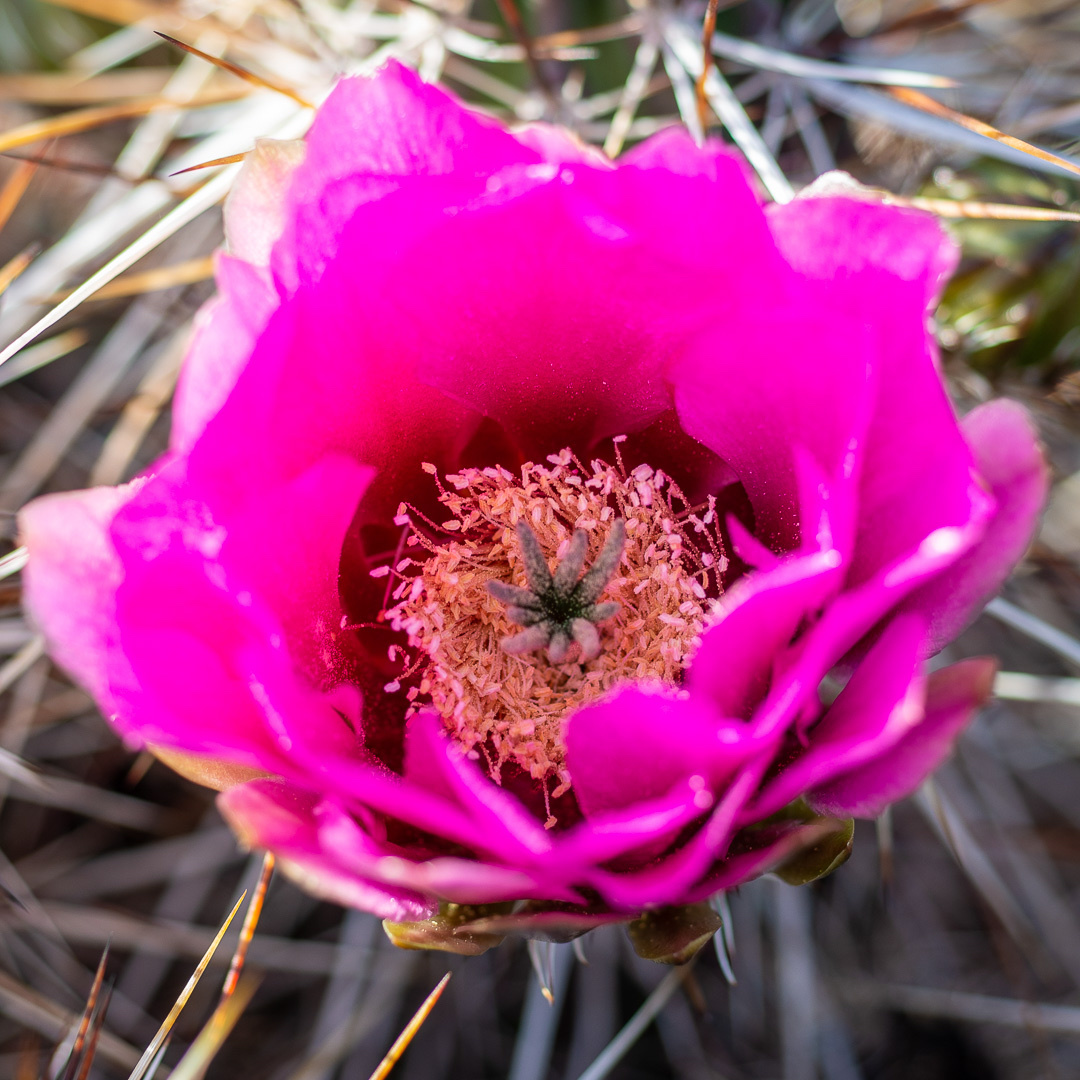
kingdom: Plantae
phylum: Tracheophyta
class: Magnoliopsida
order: Caryophyllales
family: Cactaceae
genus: Echinocereus
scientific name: Echinocereus engelmannii
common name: Engelmann's hedgehog cactus
